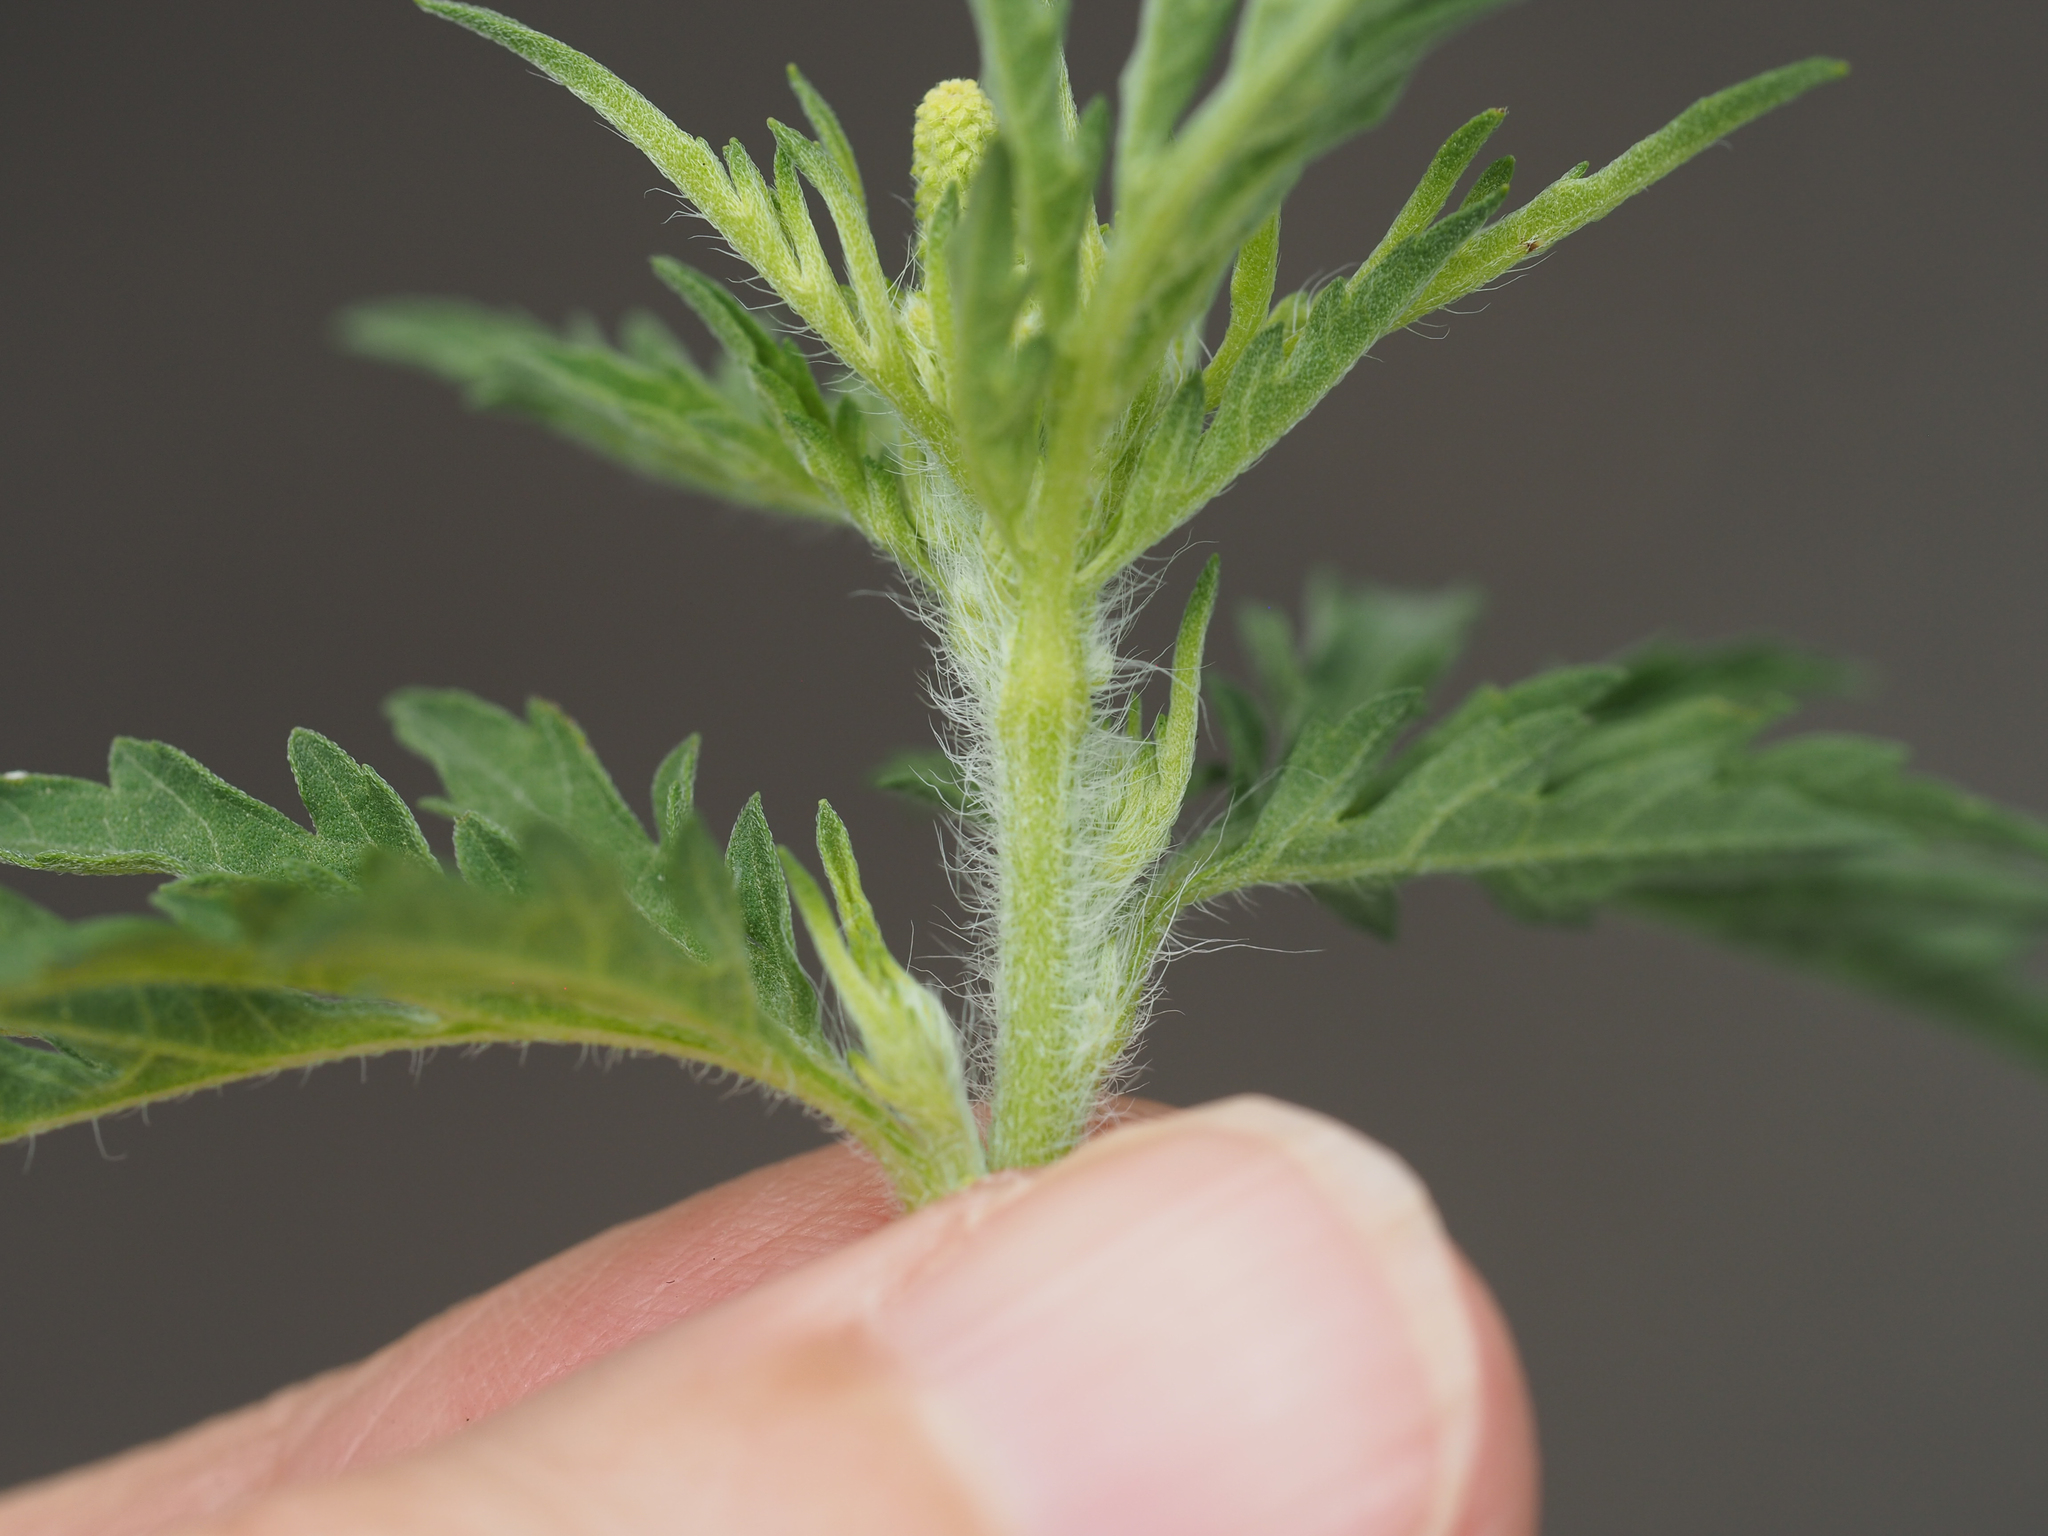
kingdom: Plantae
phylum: Tracheophyta
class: Magnoliopsida
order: Asterales
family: Asteraceae
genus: Ambrosia
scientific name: Ambrosia artemisiifolia
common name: Annual ragweed
